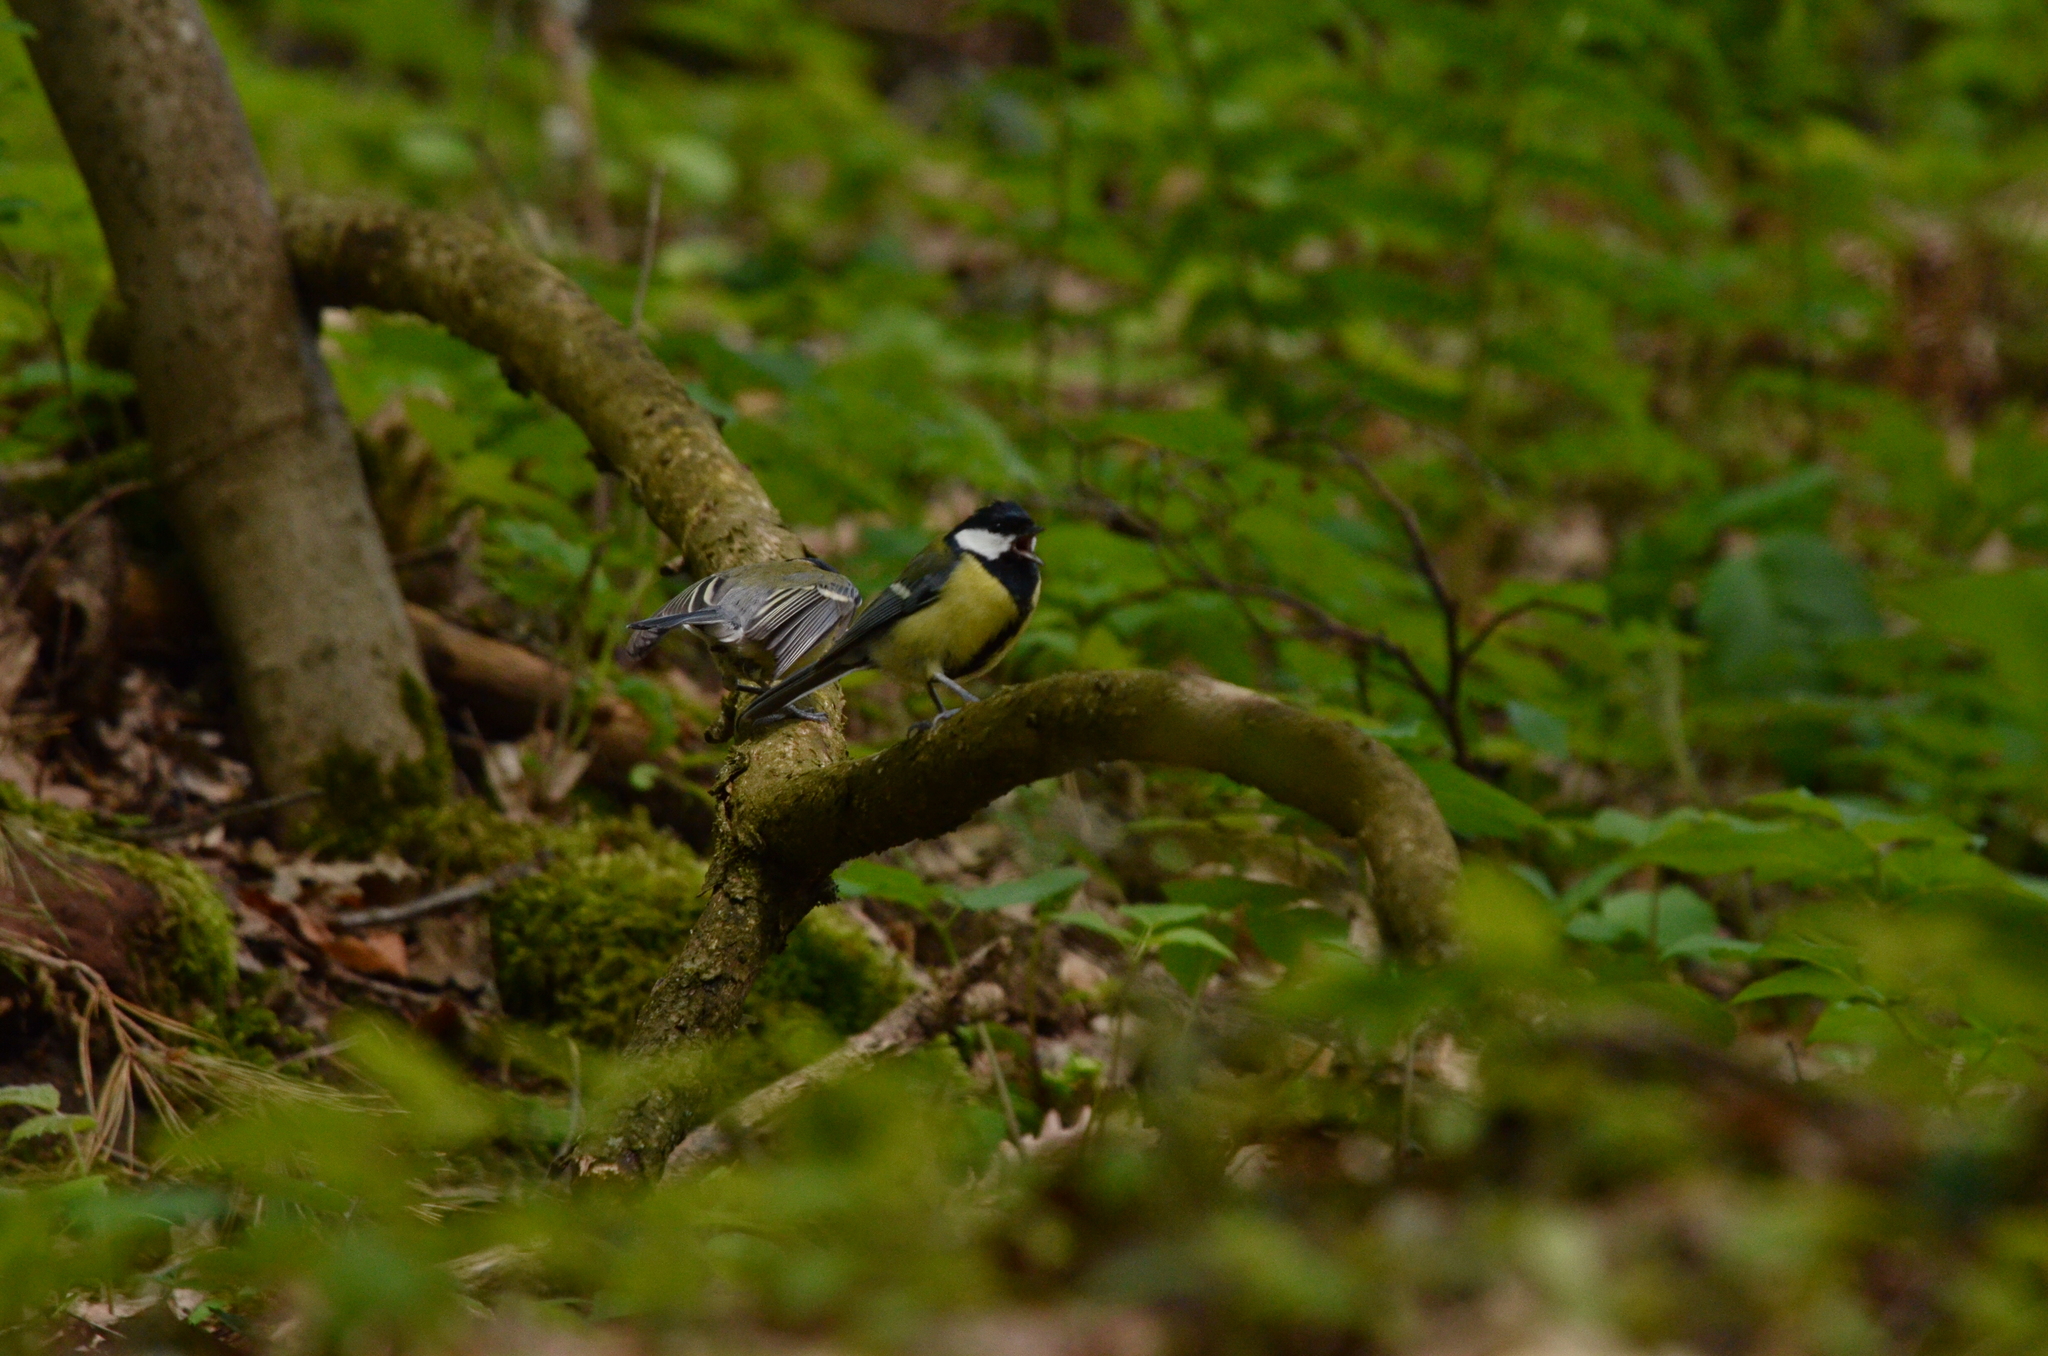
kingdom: Animalia
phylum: Chordata
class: Aves
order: Passeriformes
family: Paridae
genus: Parus
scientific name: Parus major
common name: Great tit
